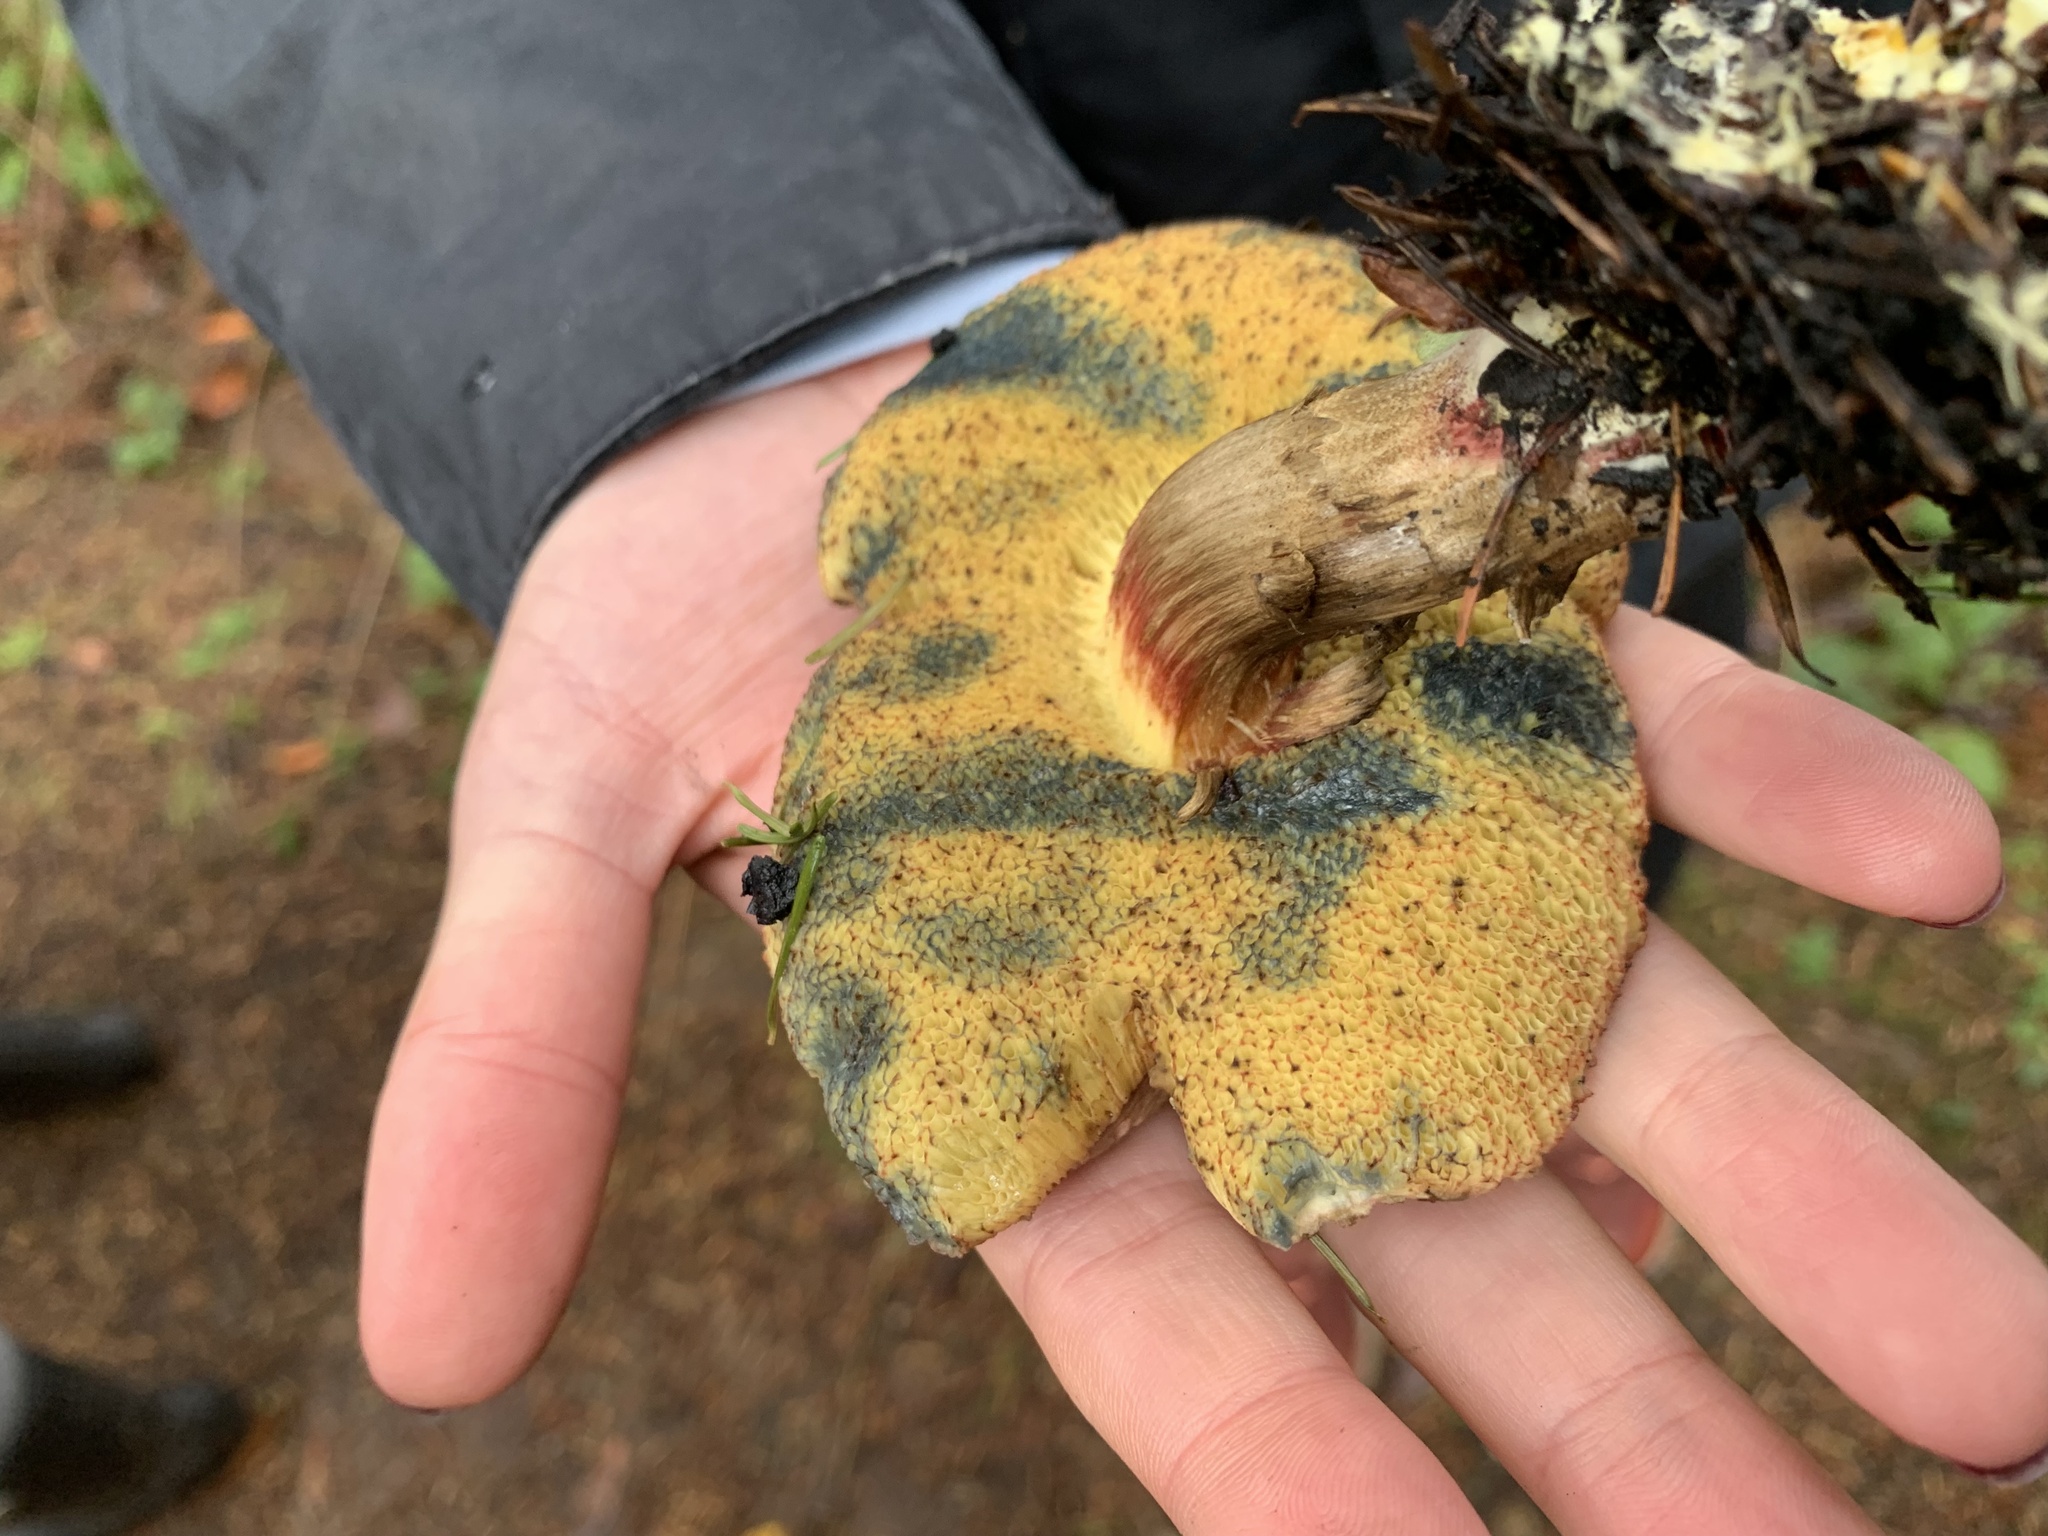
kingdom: Fungi
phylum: Basidiomycota
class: Agaricomycetes
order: Boletales
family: Boletaceae
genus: Xerocomellus
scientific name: Xerocomellus mendocinensis
